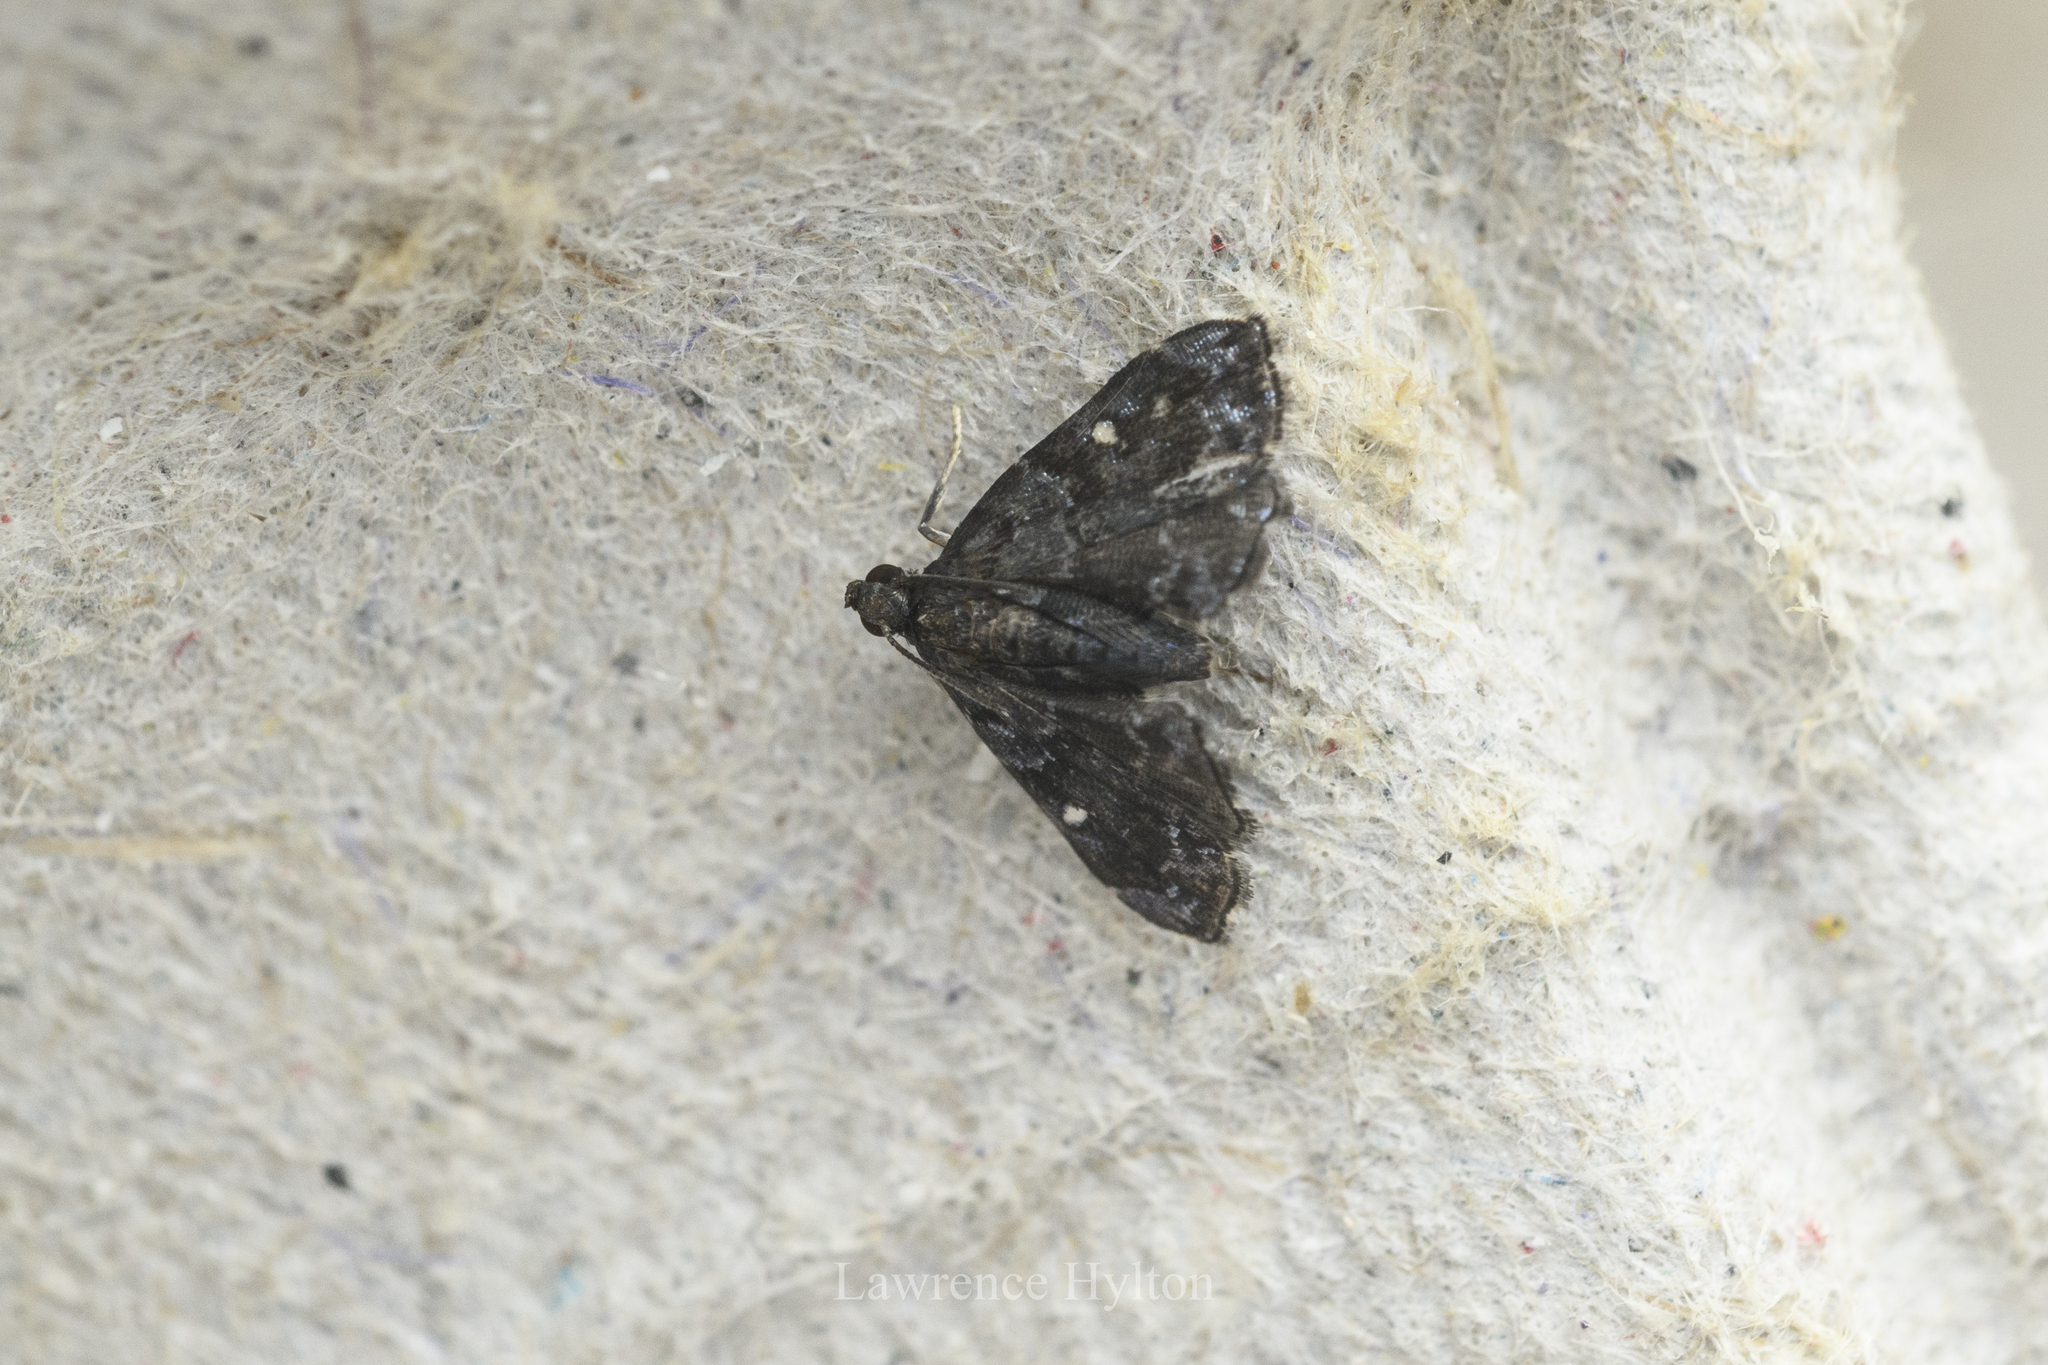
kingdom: Animalia
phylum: Arthropoda
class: Insecta
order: Lepidoptera
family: Pyralidae
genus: Drosophantis
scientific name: Drosophantis caeruleata
